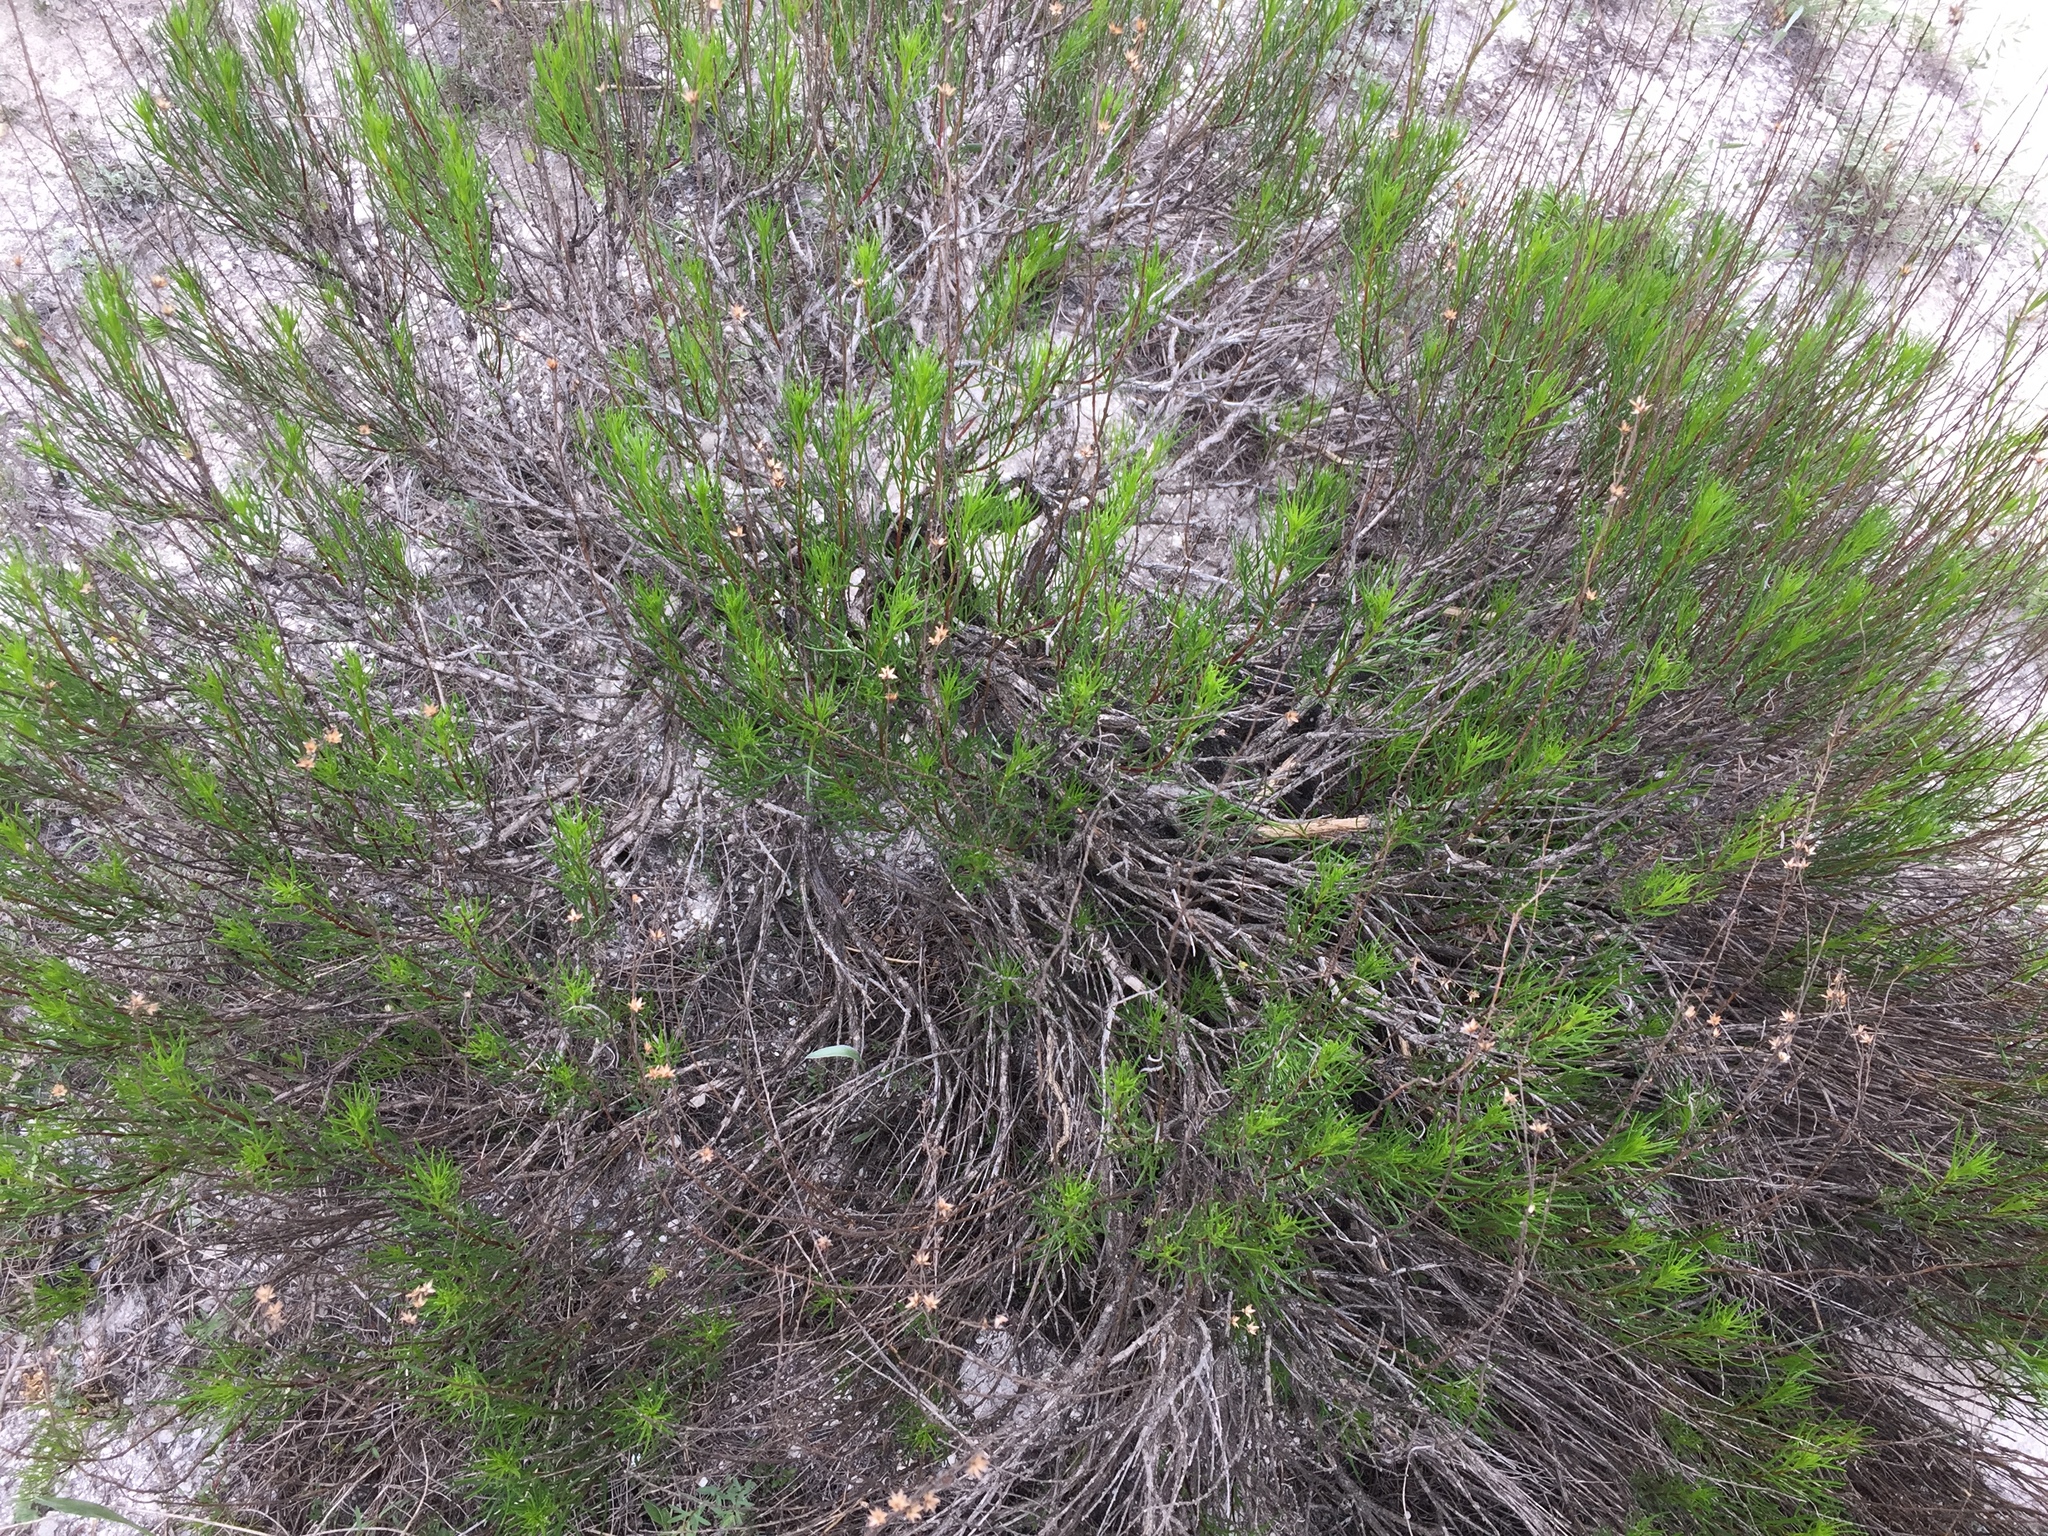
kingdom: Plantae
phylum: Tracheophyta
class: Magnoliopsida
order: Asterales
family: Asteraceae
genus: Artemisia
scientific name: Artemisia salsoloides
